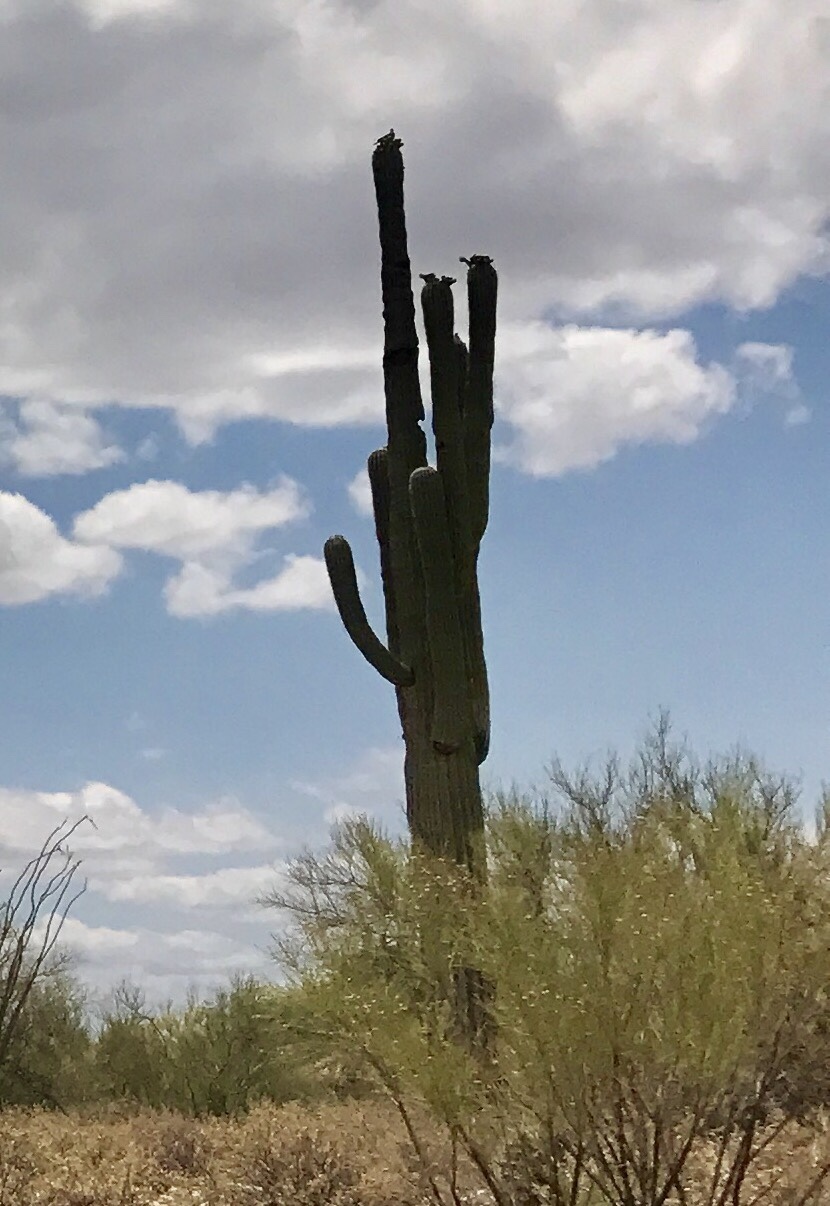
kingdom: Plantae
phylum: Tracheophyta
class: Magnoliopsida
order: Caryophyllales
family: Cactaceae
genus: Carnegiea
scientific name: Carnegiea gigantea
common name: Saguaro
